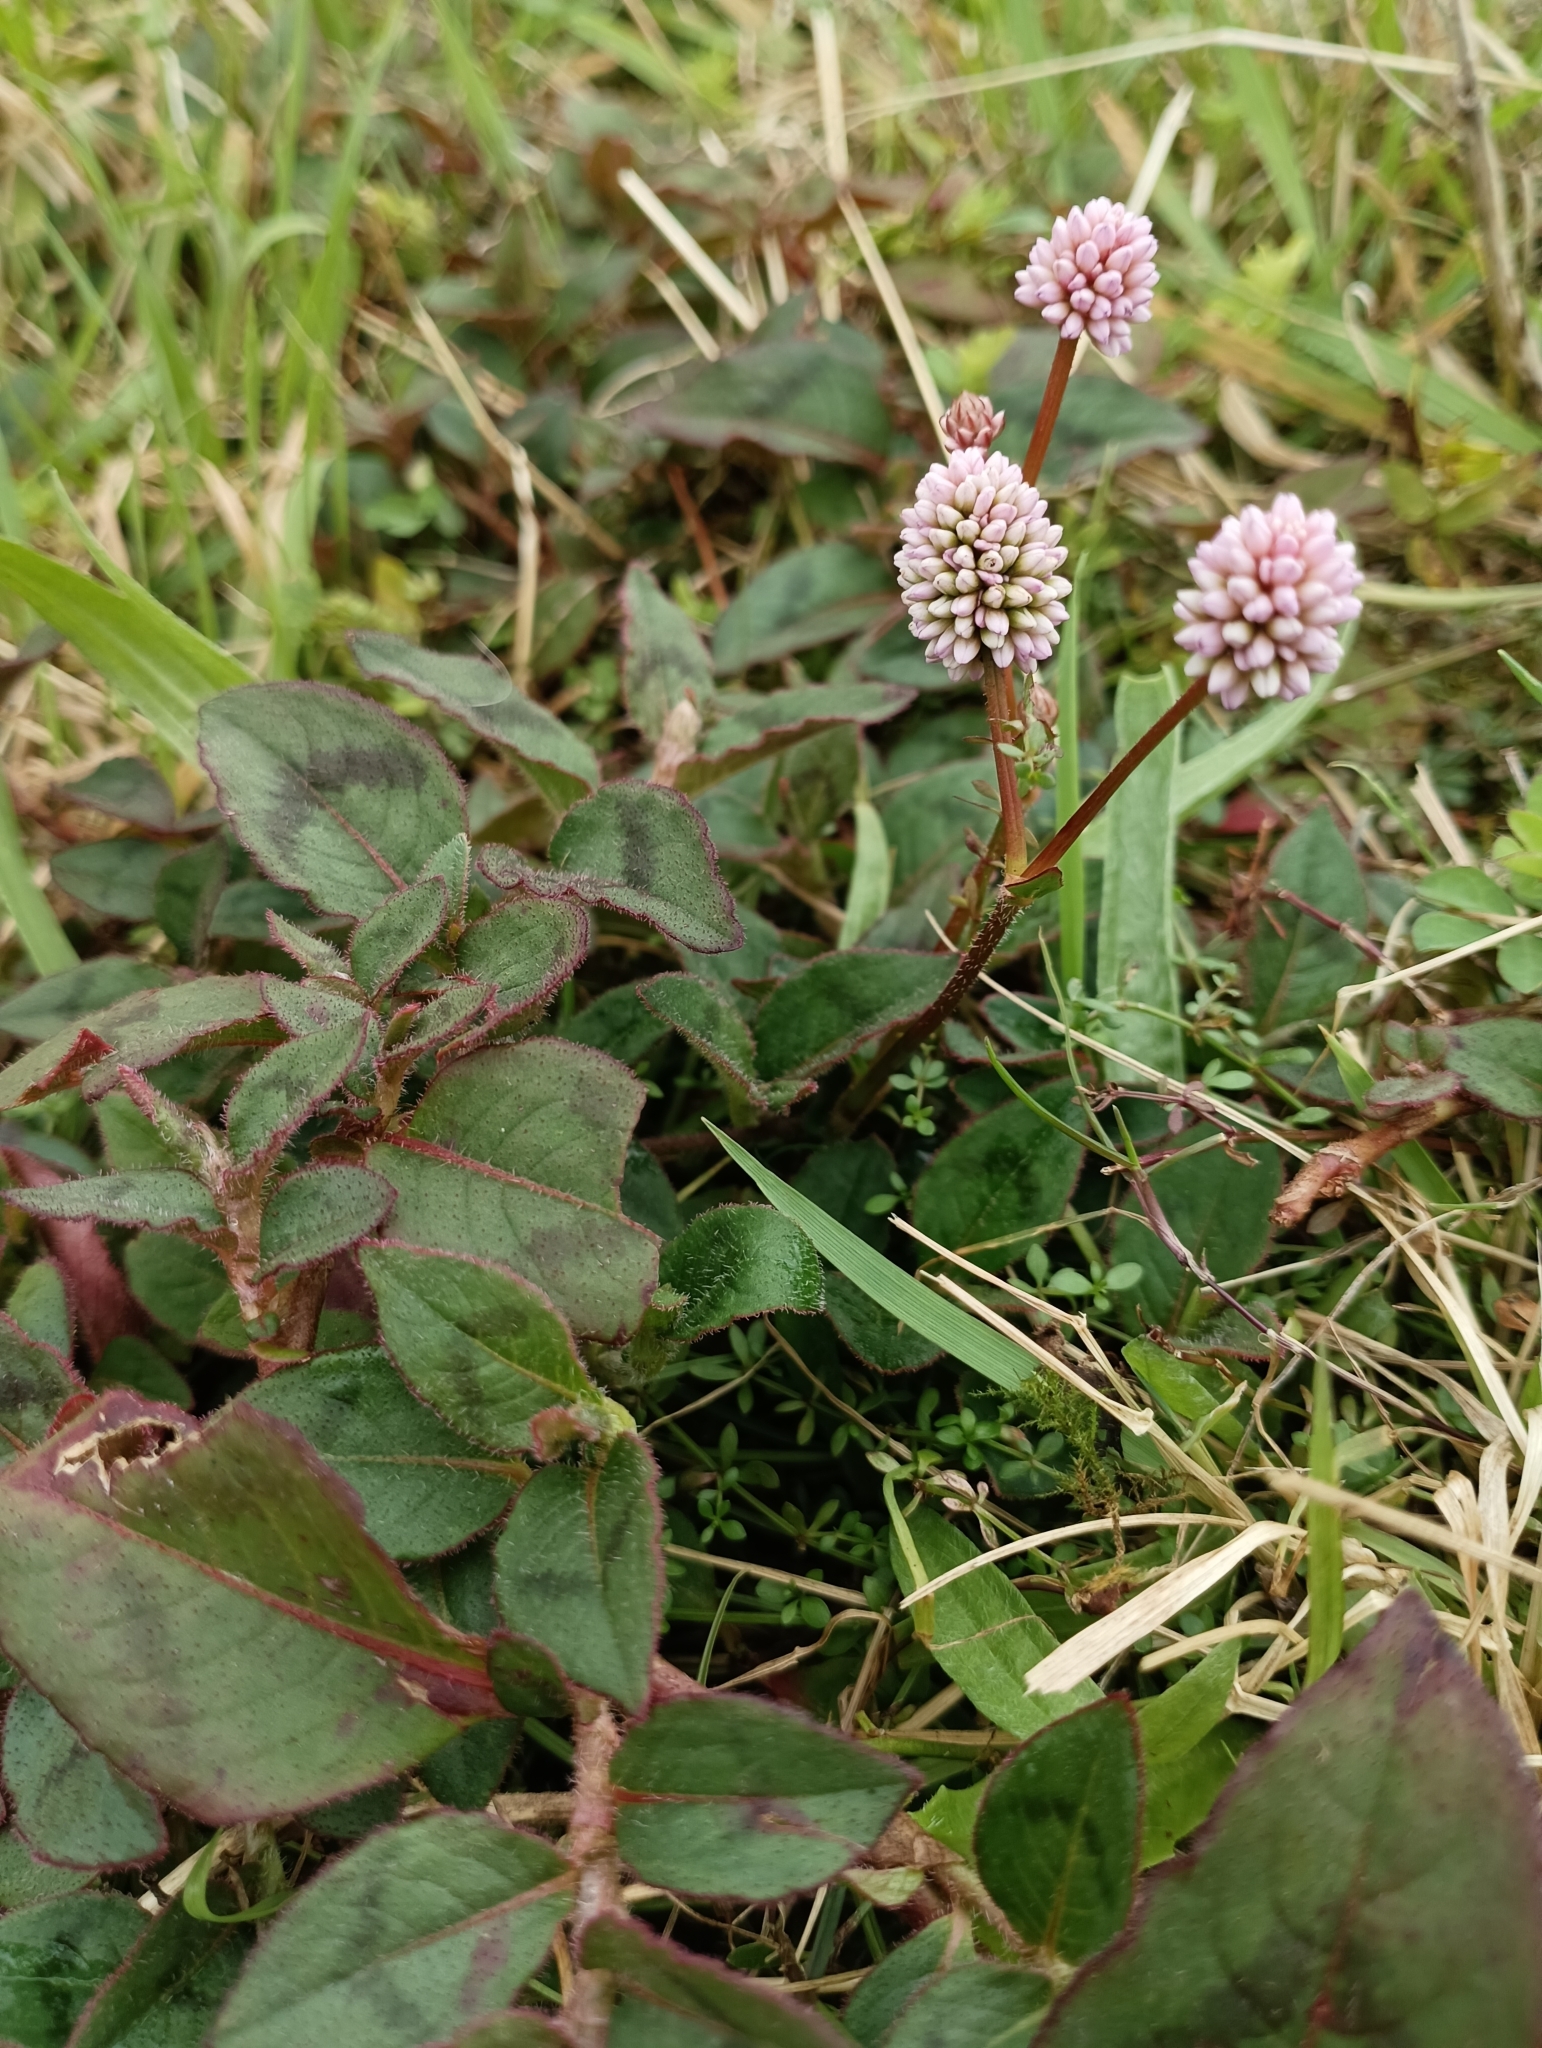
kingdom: Plantae
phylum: Tracheophyta
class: Magnoliopsida
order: Caryophyllales
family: Polygonaceae
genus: Persicaria
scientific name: Persicaria capitata
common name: Pinkhead smartweed
